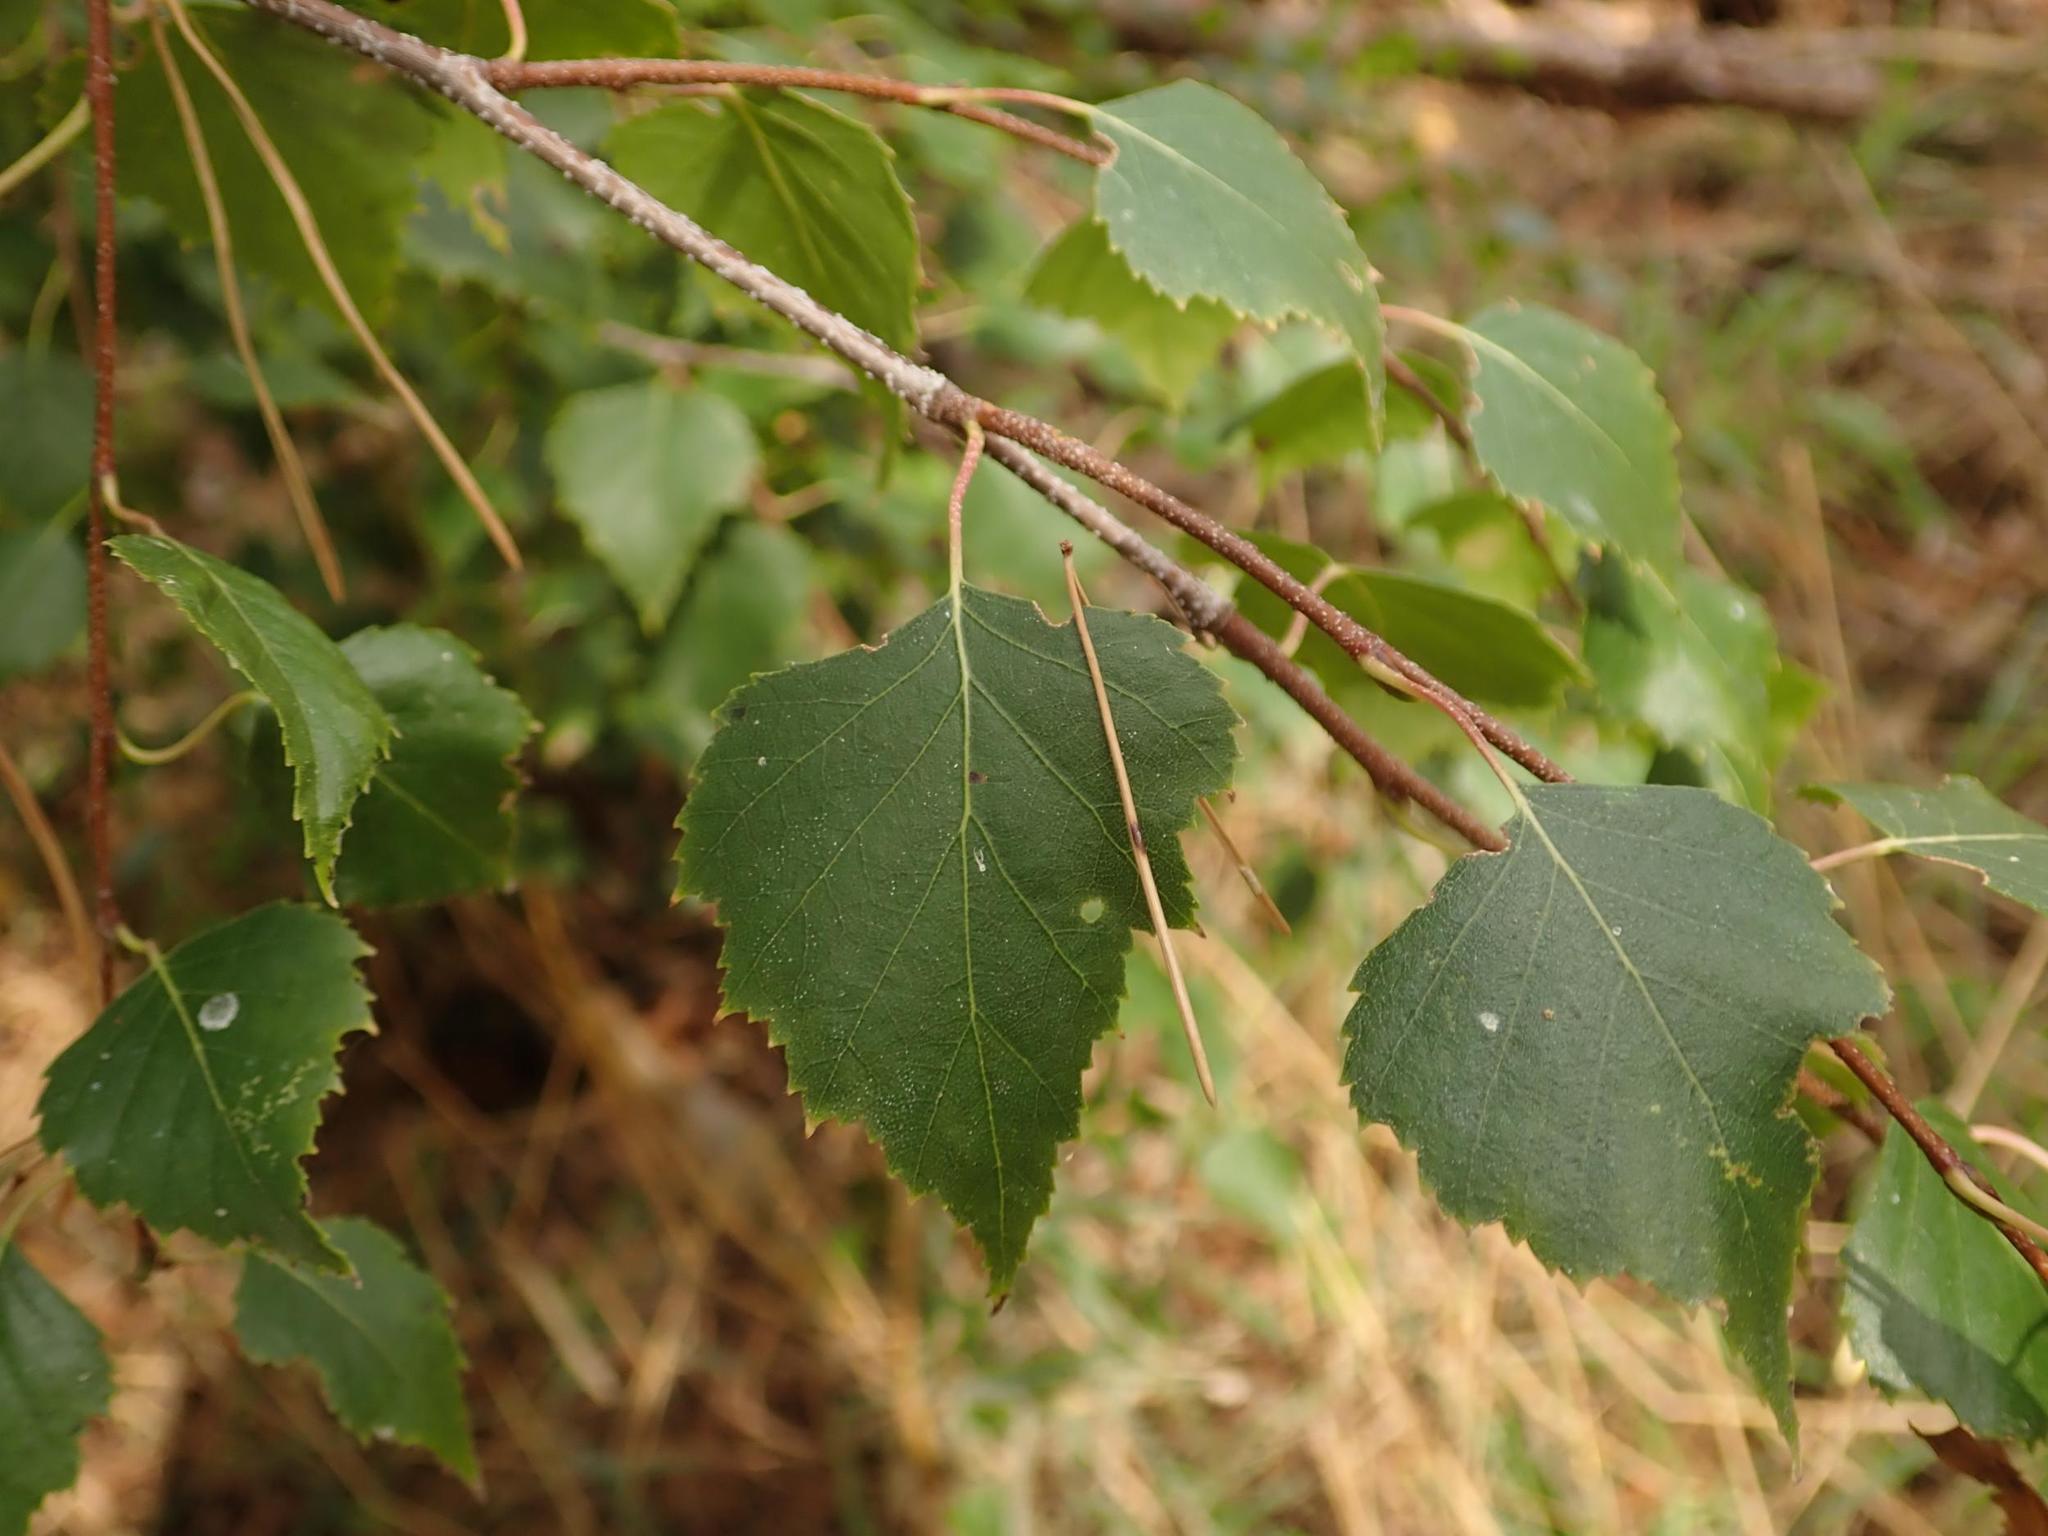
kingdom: Plantae
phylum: Tracheophyta
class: Magnoliopsida
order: Fagales
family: Betulaceae
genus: Betula
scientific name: Betula pendula
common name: Silver birch
